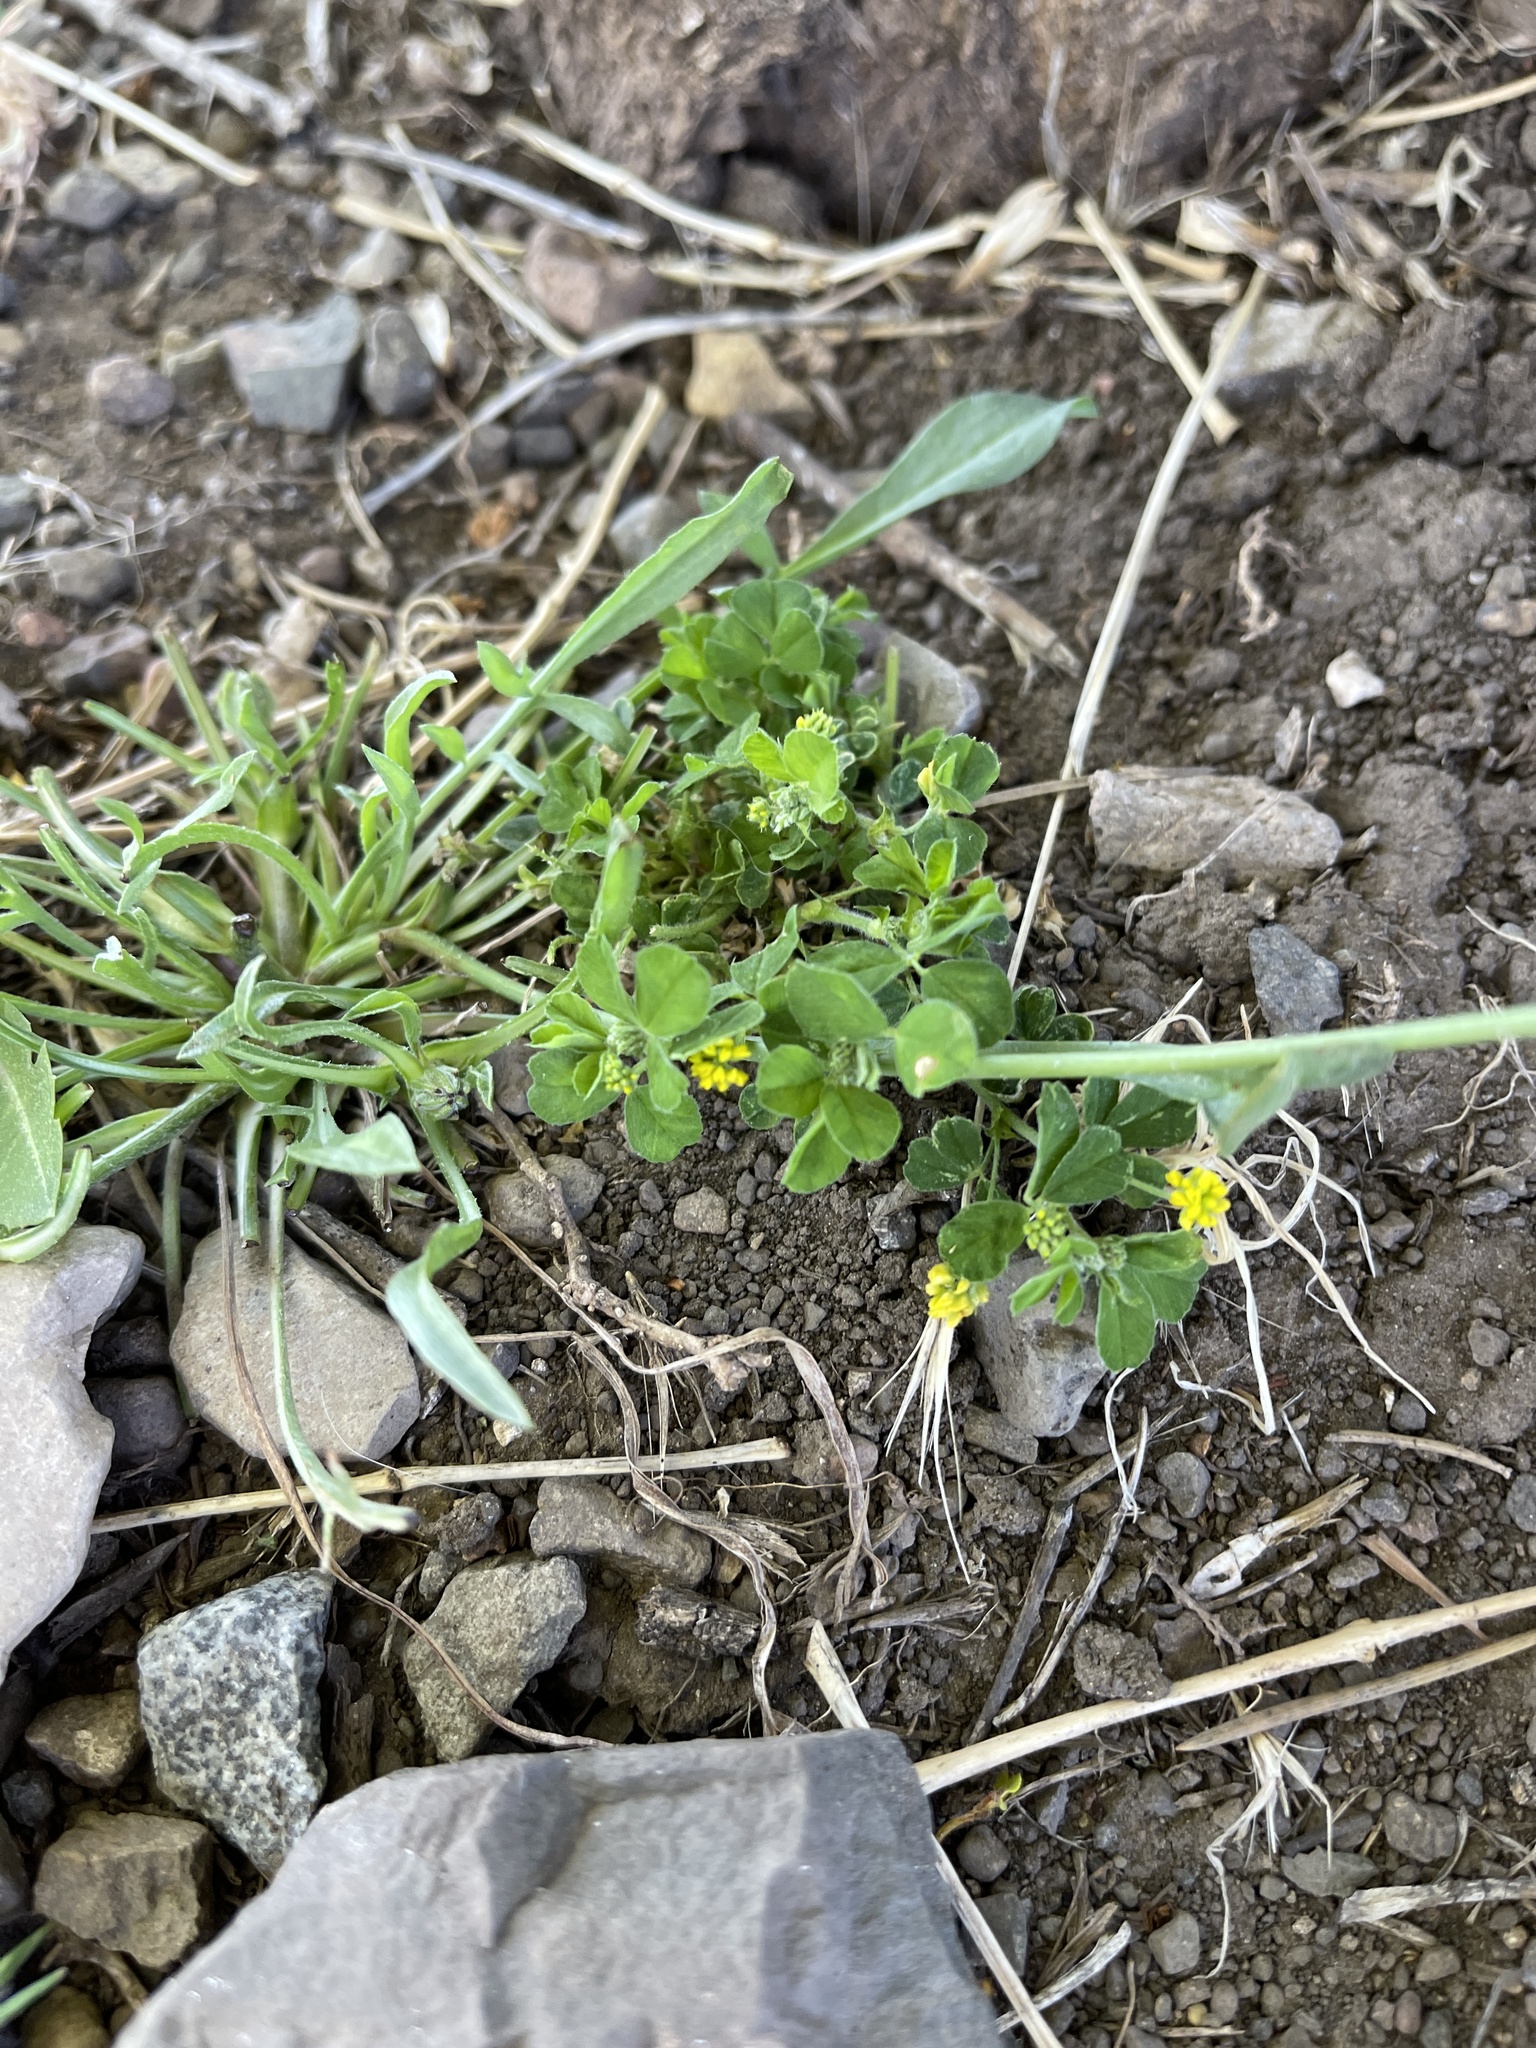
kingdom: Plantae
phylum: Tracheophyta
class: Magnoliopsida
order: Fabales
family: Fabaceae
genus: Medicago
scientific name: Medicago lupulina
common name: Black medick
